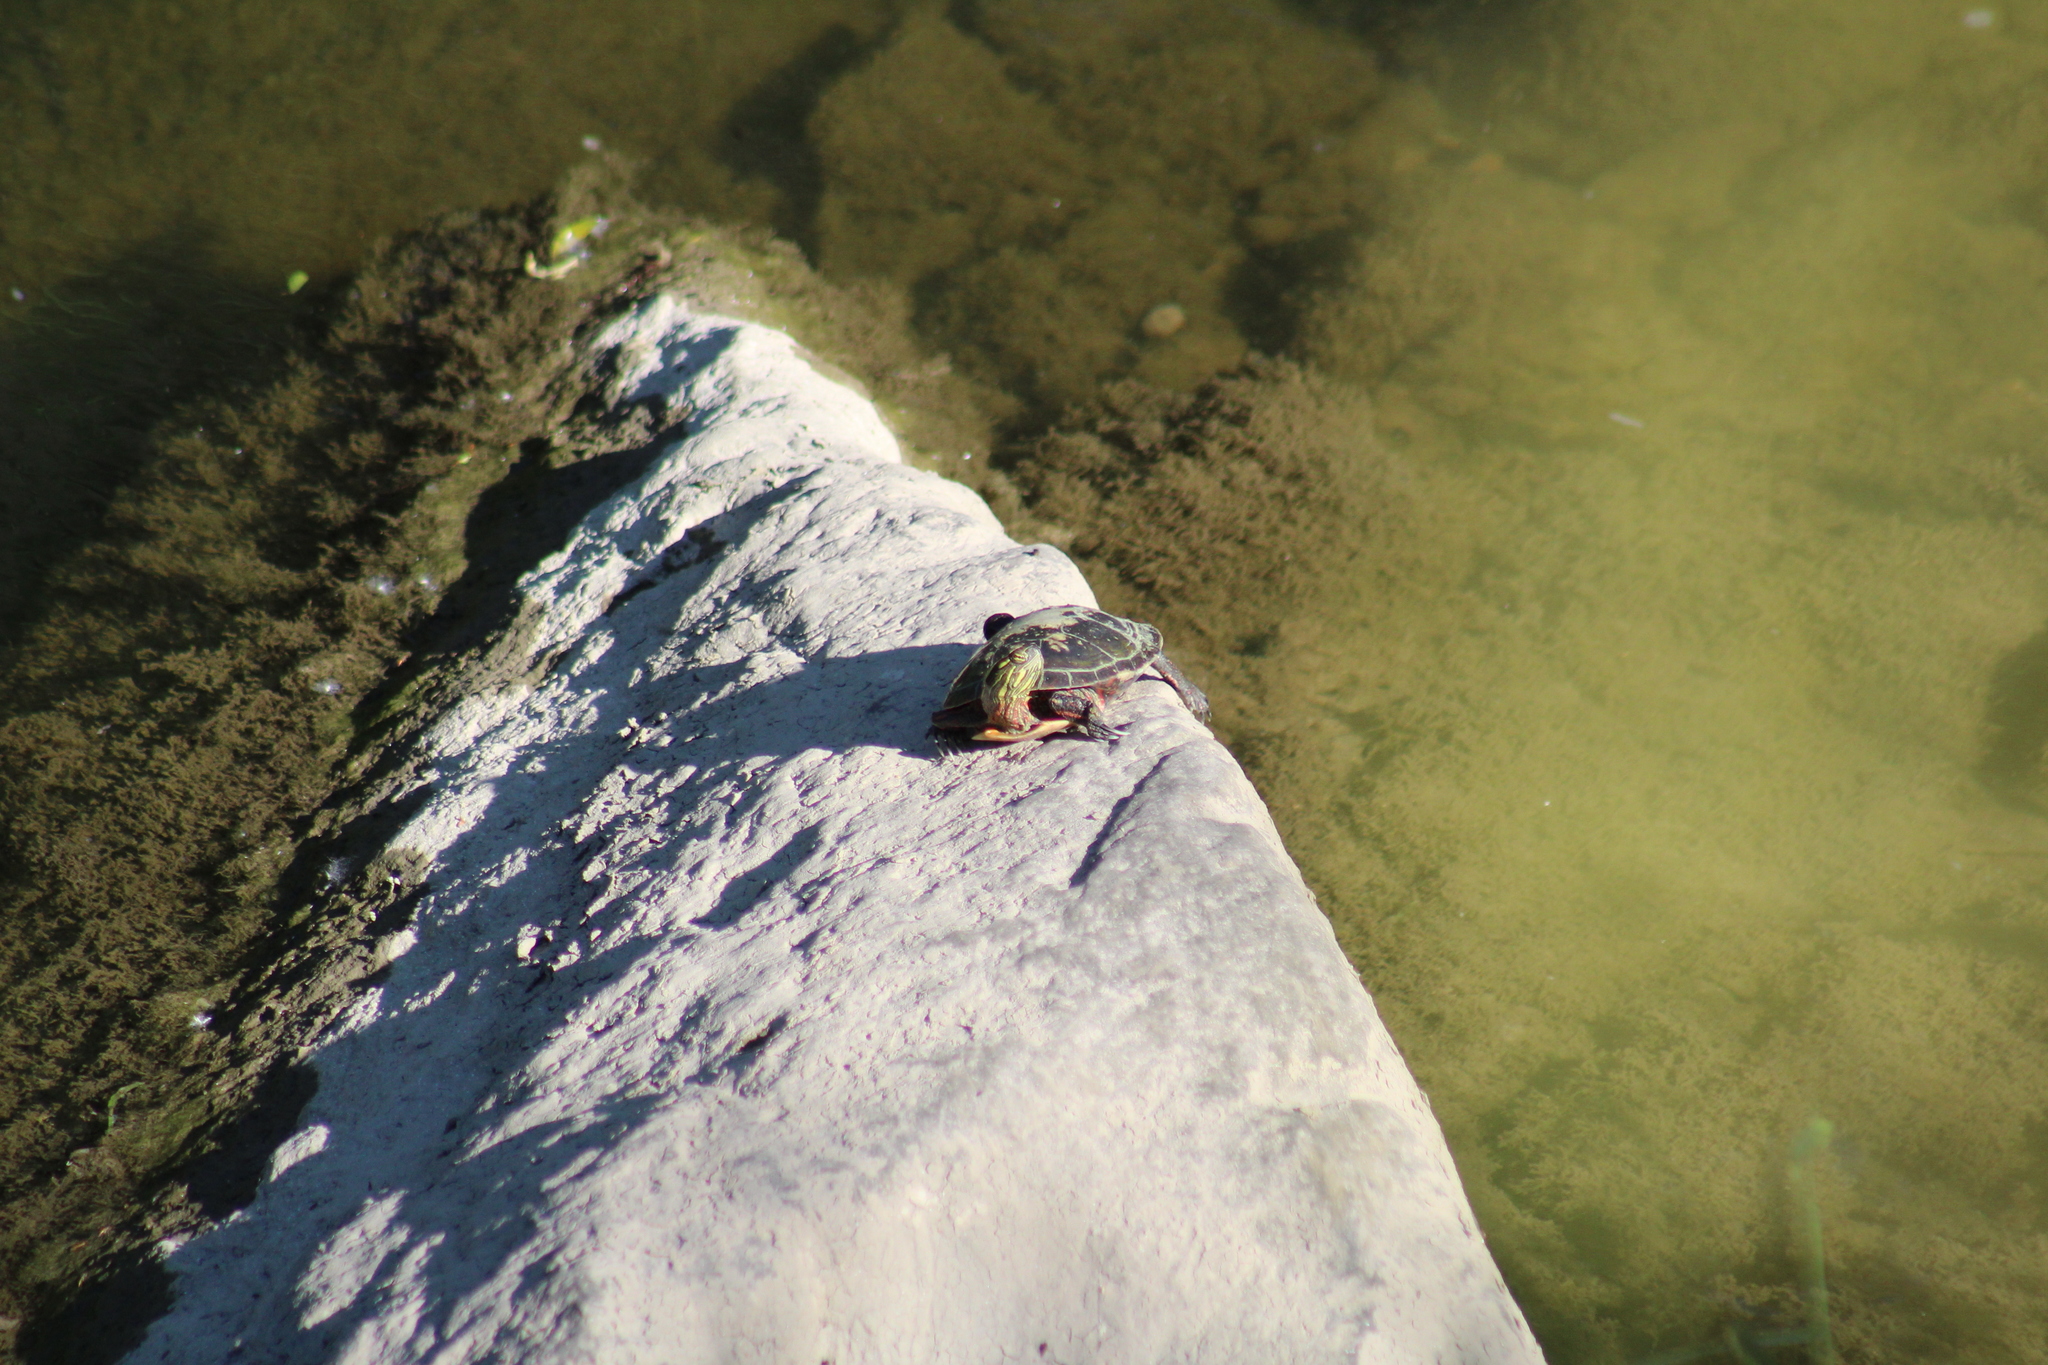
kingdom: Animalia
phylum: Chordata
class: Testudines
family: Emydidae
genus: Chrysemys
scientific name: Chrysemys picta
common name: Painted turtle
